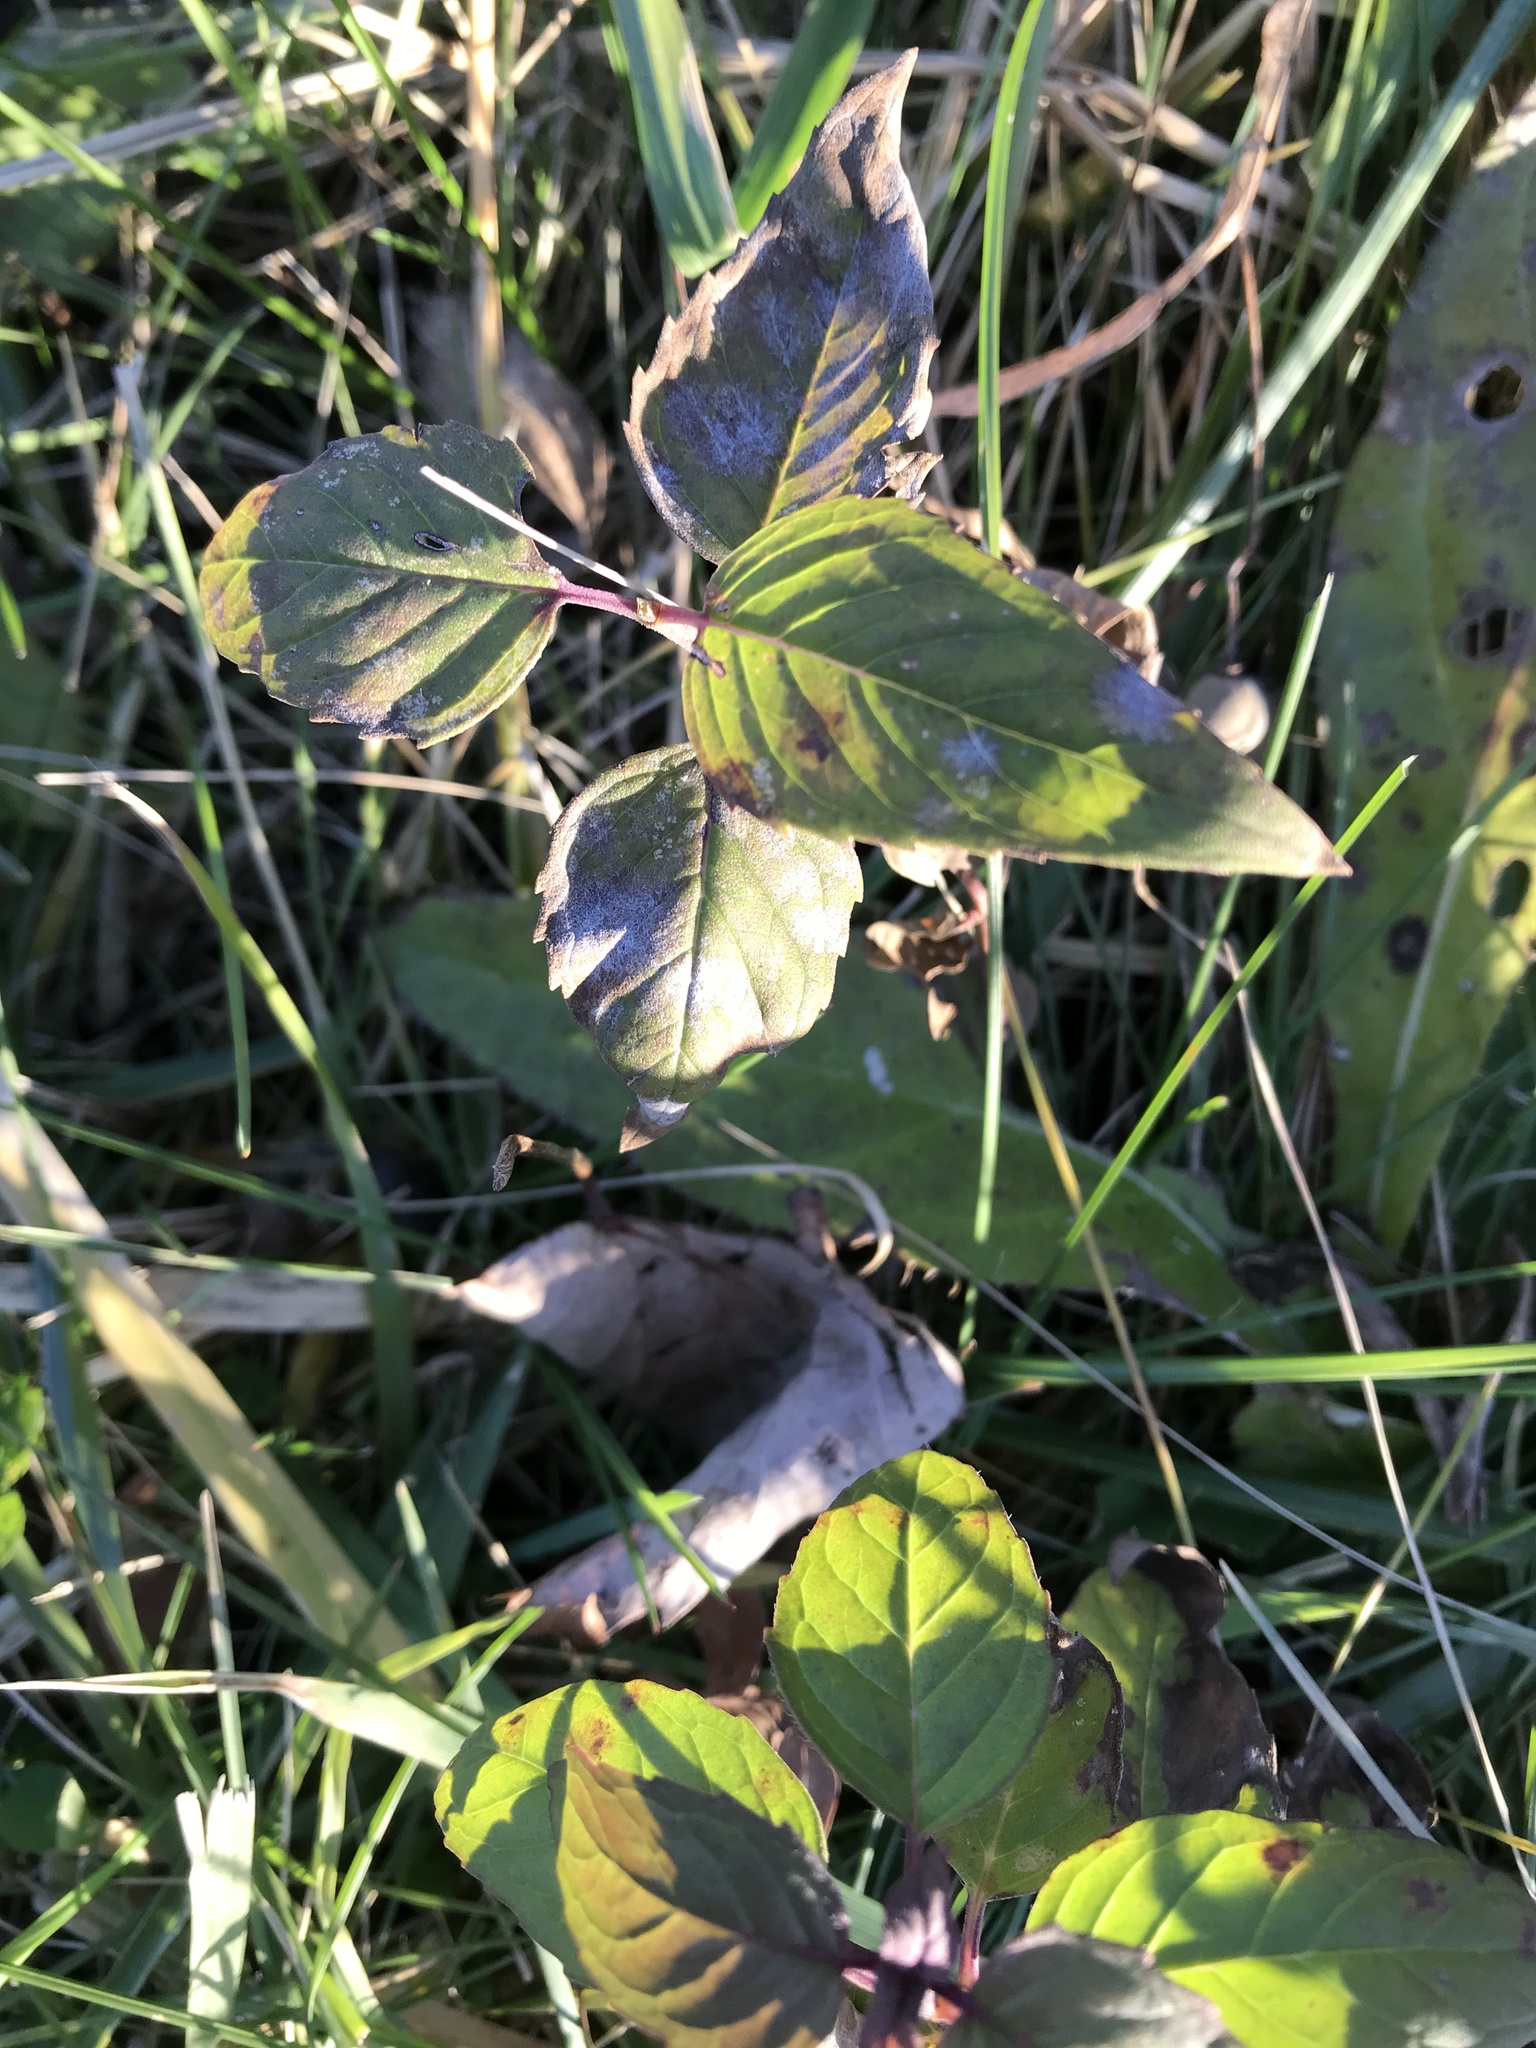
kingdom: Plantae
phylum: Tracheophyta
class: Magnoliopsida
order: Lamiales
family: Lamiaceae
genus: Monarda
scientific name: Monarda fistulosa
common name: Purple beebalm
